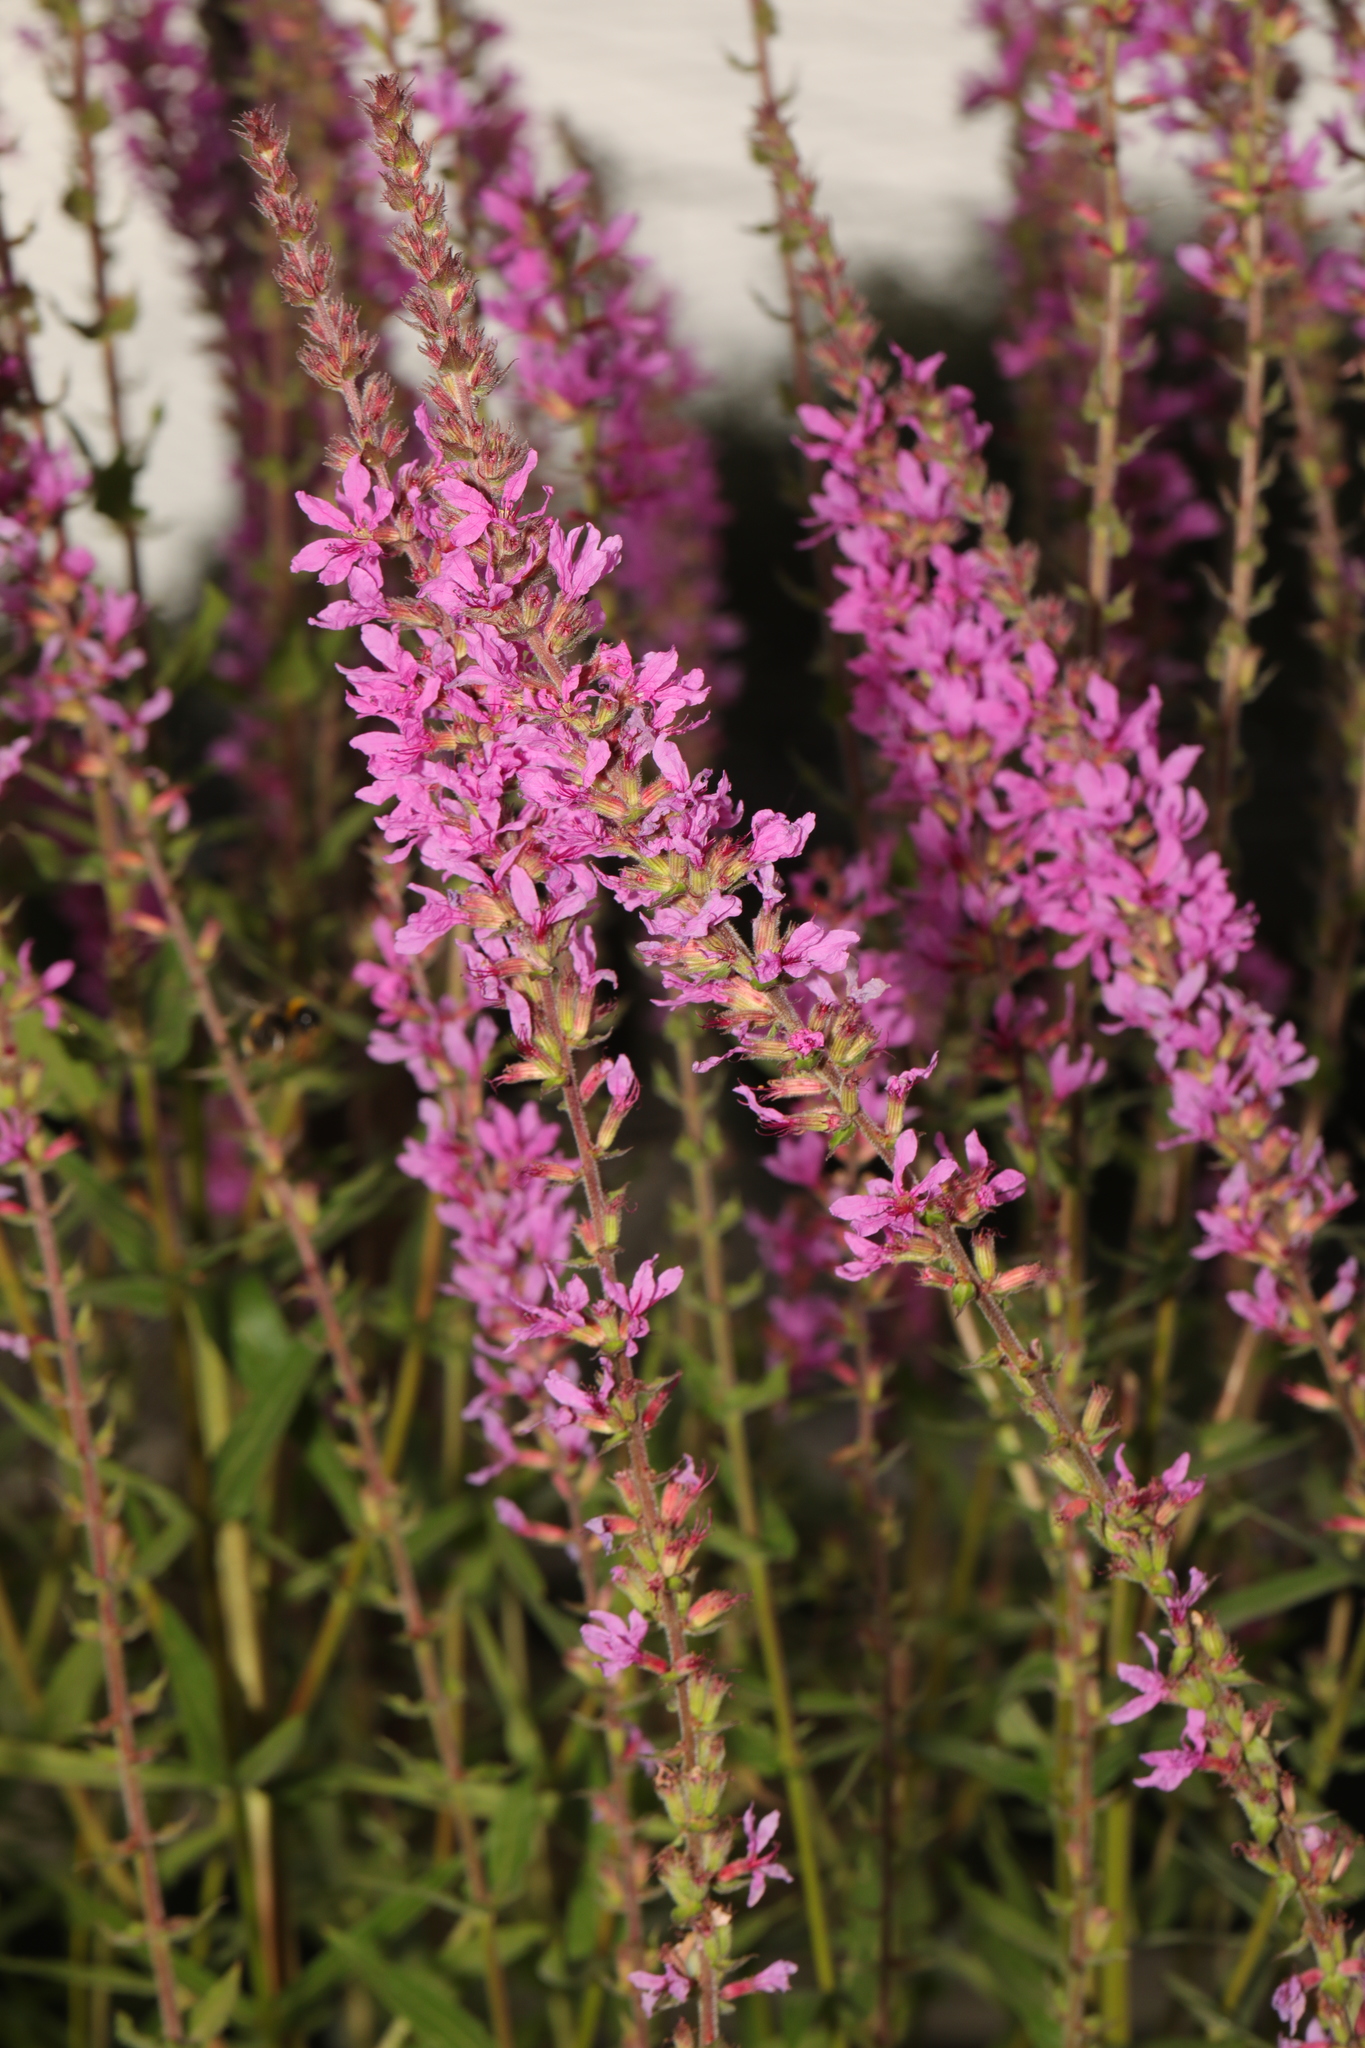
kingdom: Plantae
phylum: Tracheophyta
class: Magnoliopsida
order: Myrtales
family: Lythraceae
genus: Lythrum
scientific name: Lythrum salicaria
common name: Purple loosestrife
